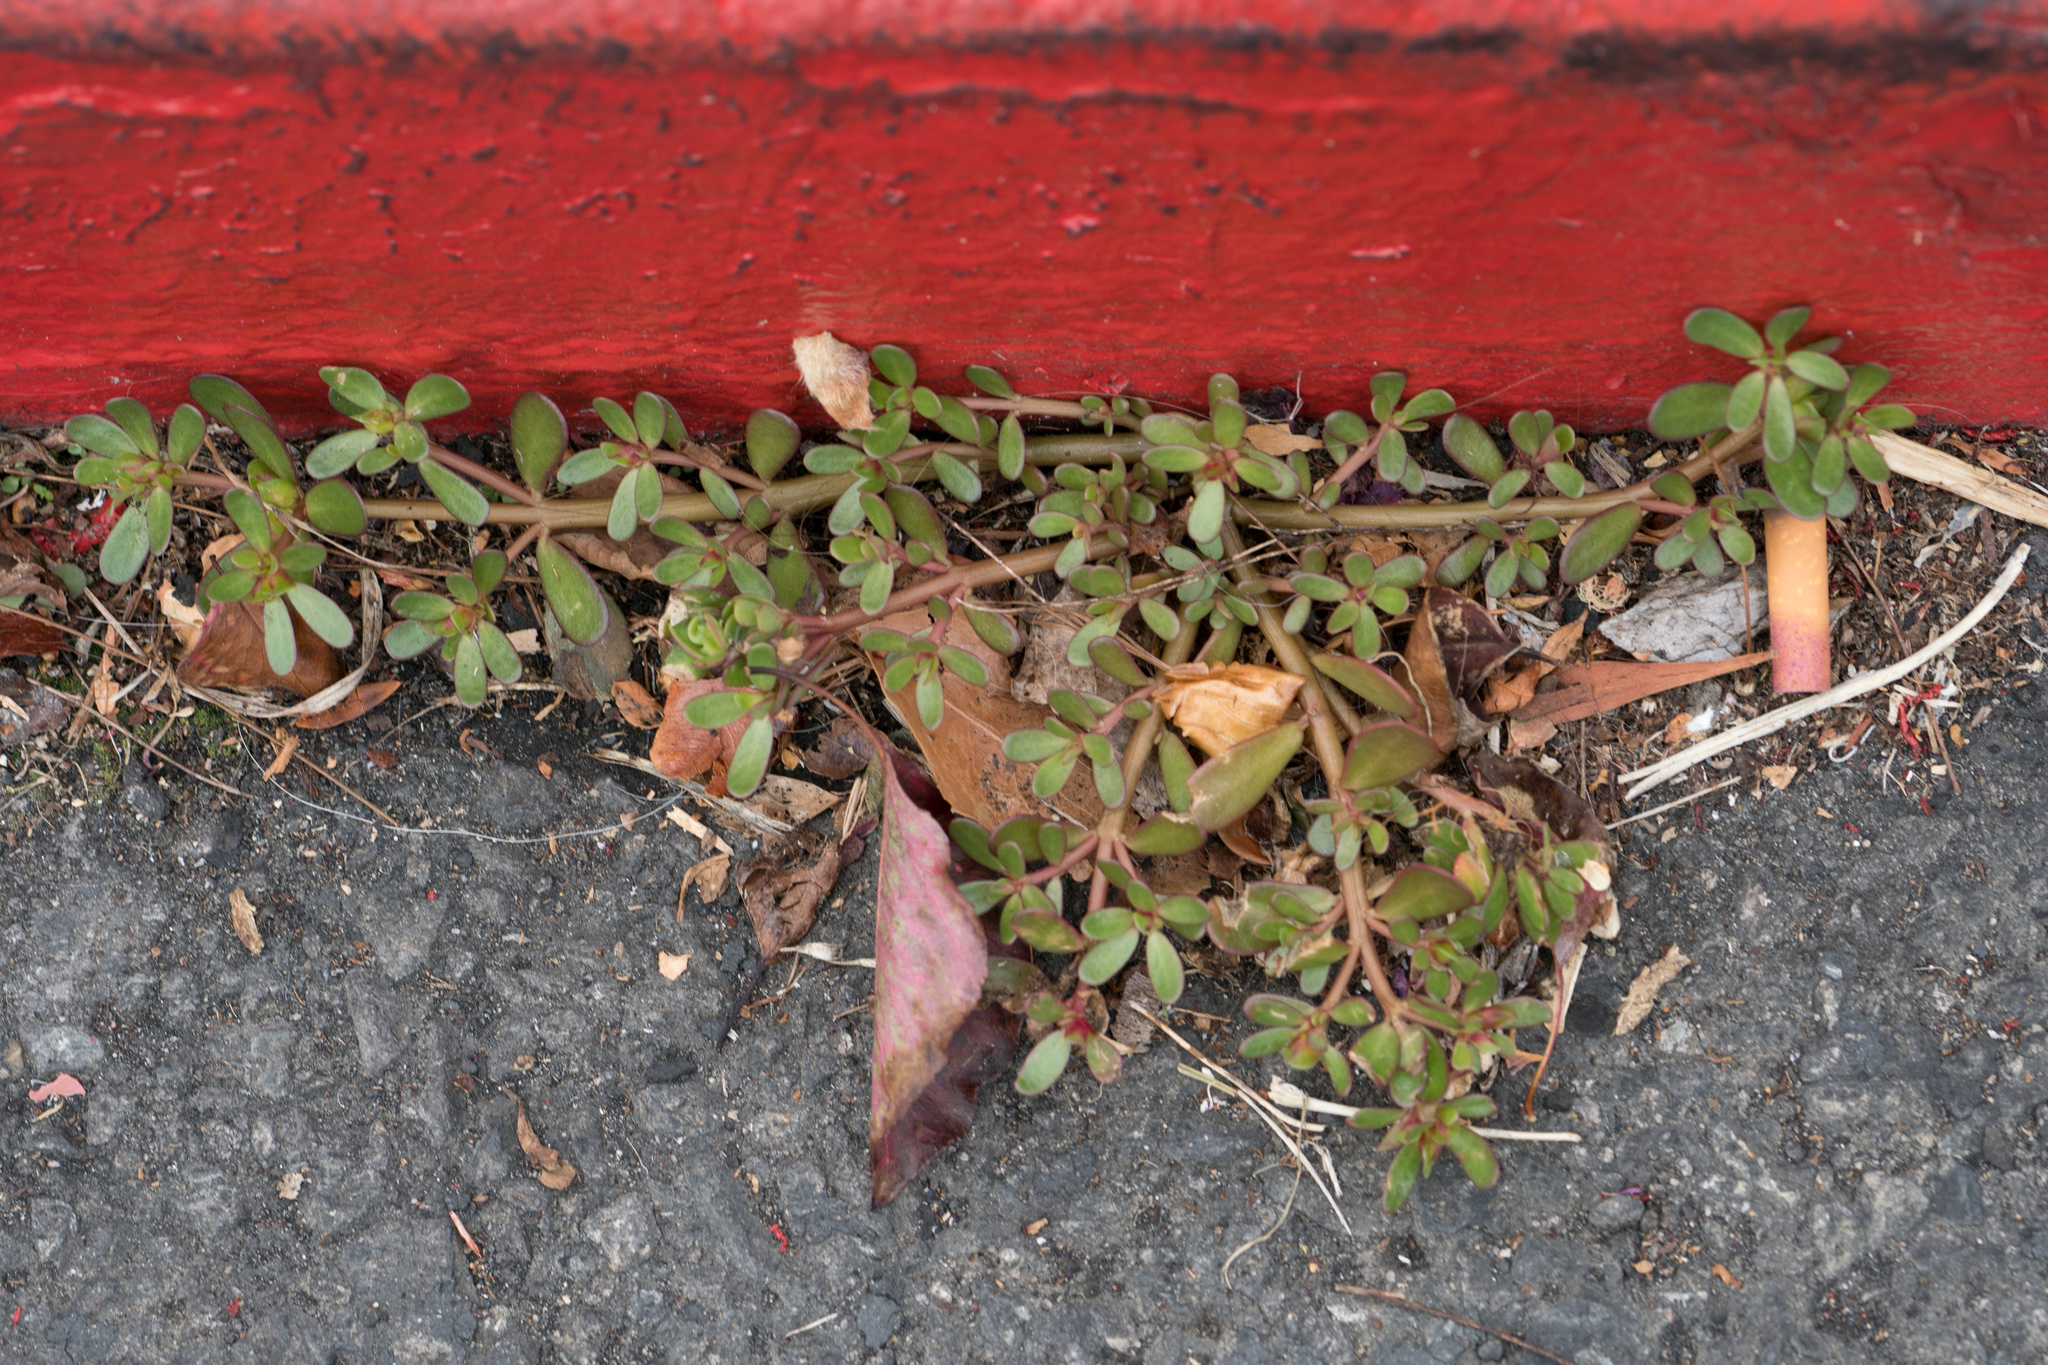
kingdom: Plantae
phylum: Tracheophyta
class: Magnoliopsida
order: Caryophyllales
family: Portulacaceae
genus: Portulaca
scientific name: Portulaca oleracea
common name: Common purslane
